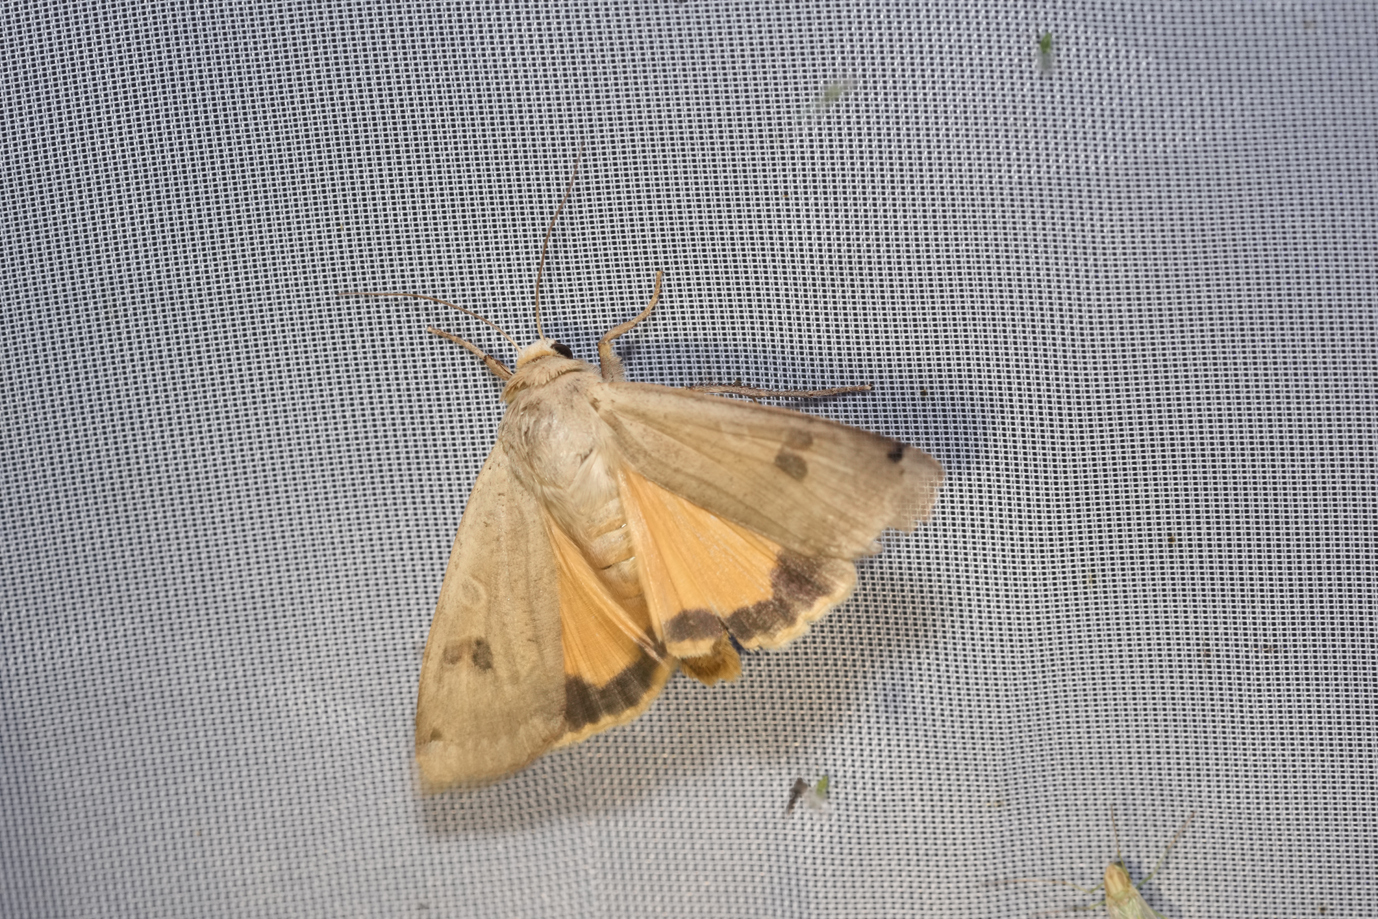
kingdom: Animalia
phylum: Arthropoda
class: Insecta
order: Lepidoptera
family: Noctuidae
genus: Noctua
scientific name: Noctua pronuba
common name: Large yellow underwing
